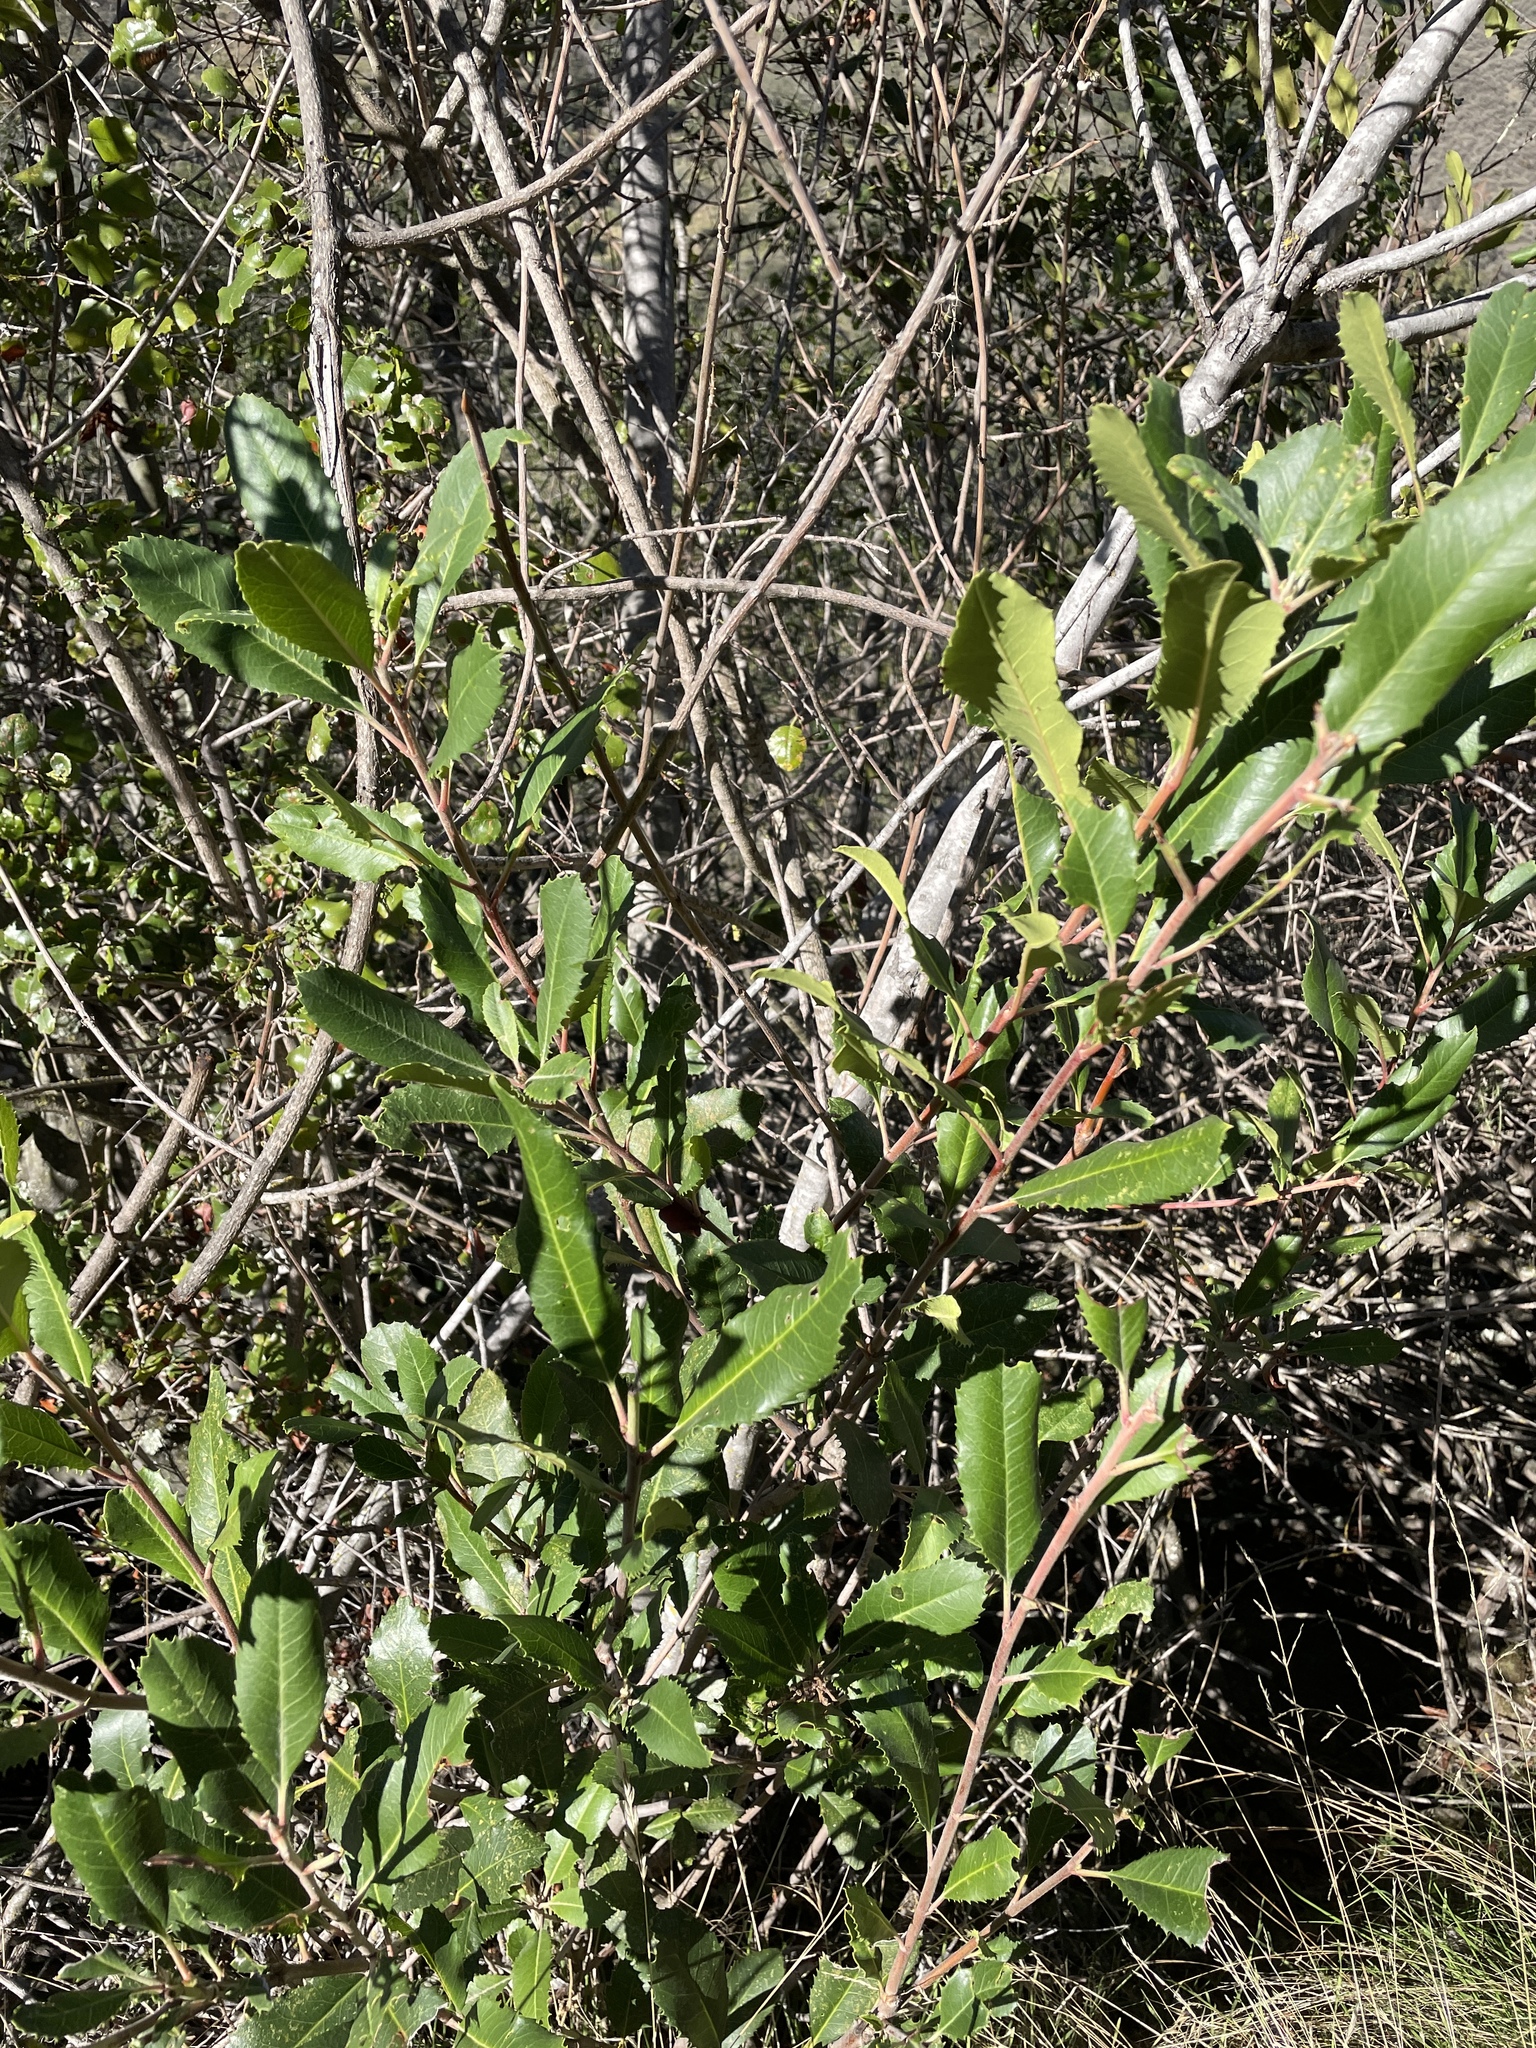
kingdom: Plantae
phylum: Tracheophyta
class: Magnoliopsida
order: Rosales
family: Rosaceae
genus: Heteromeles
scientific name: Heteromeles arbutifolia
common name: California-holly
